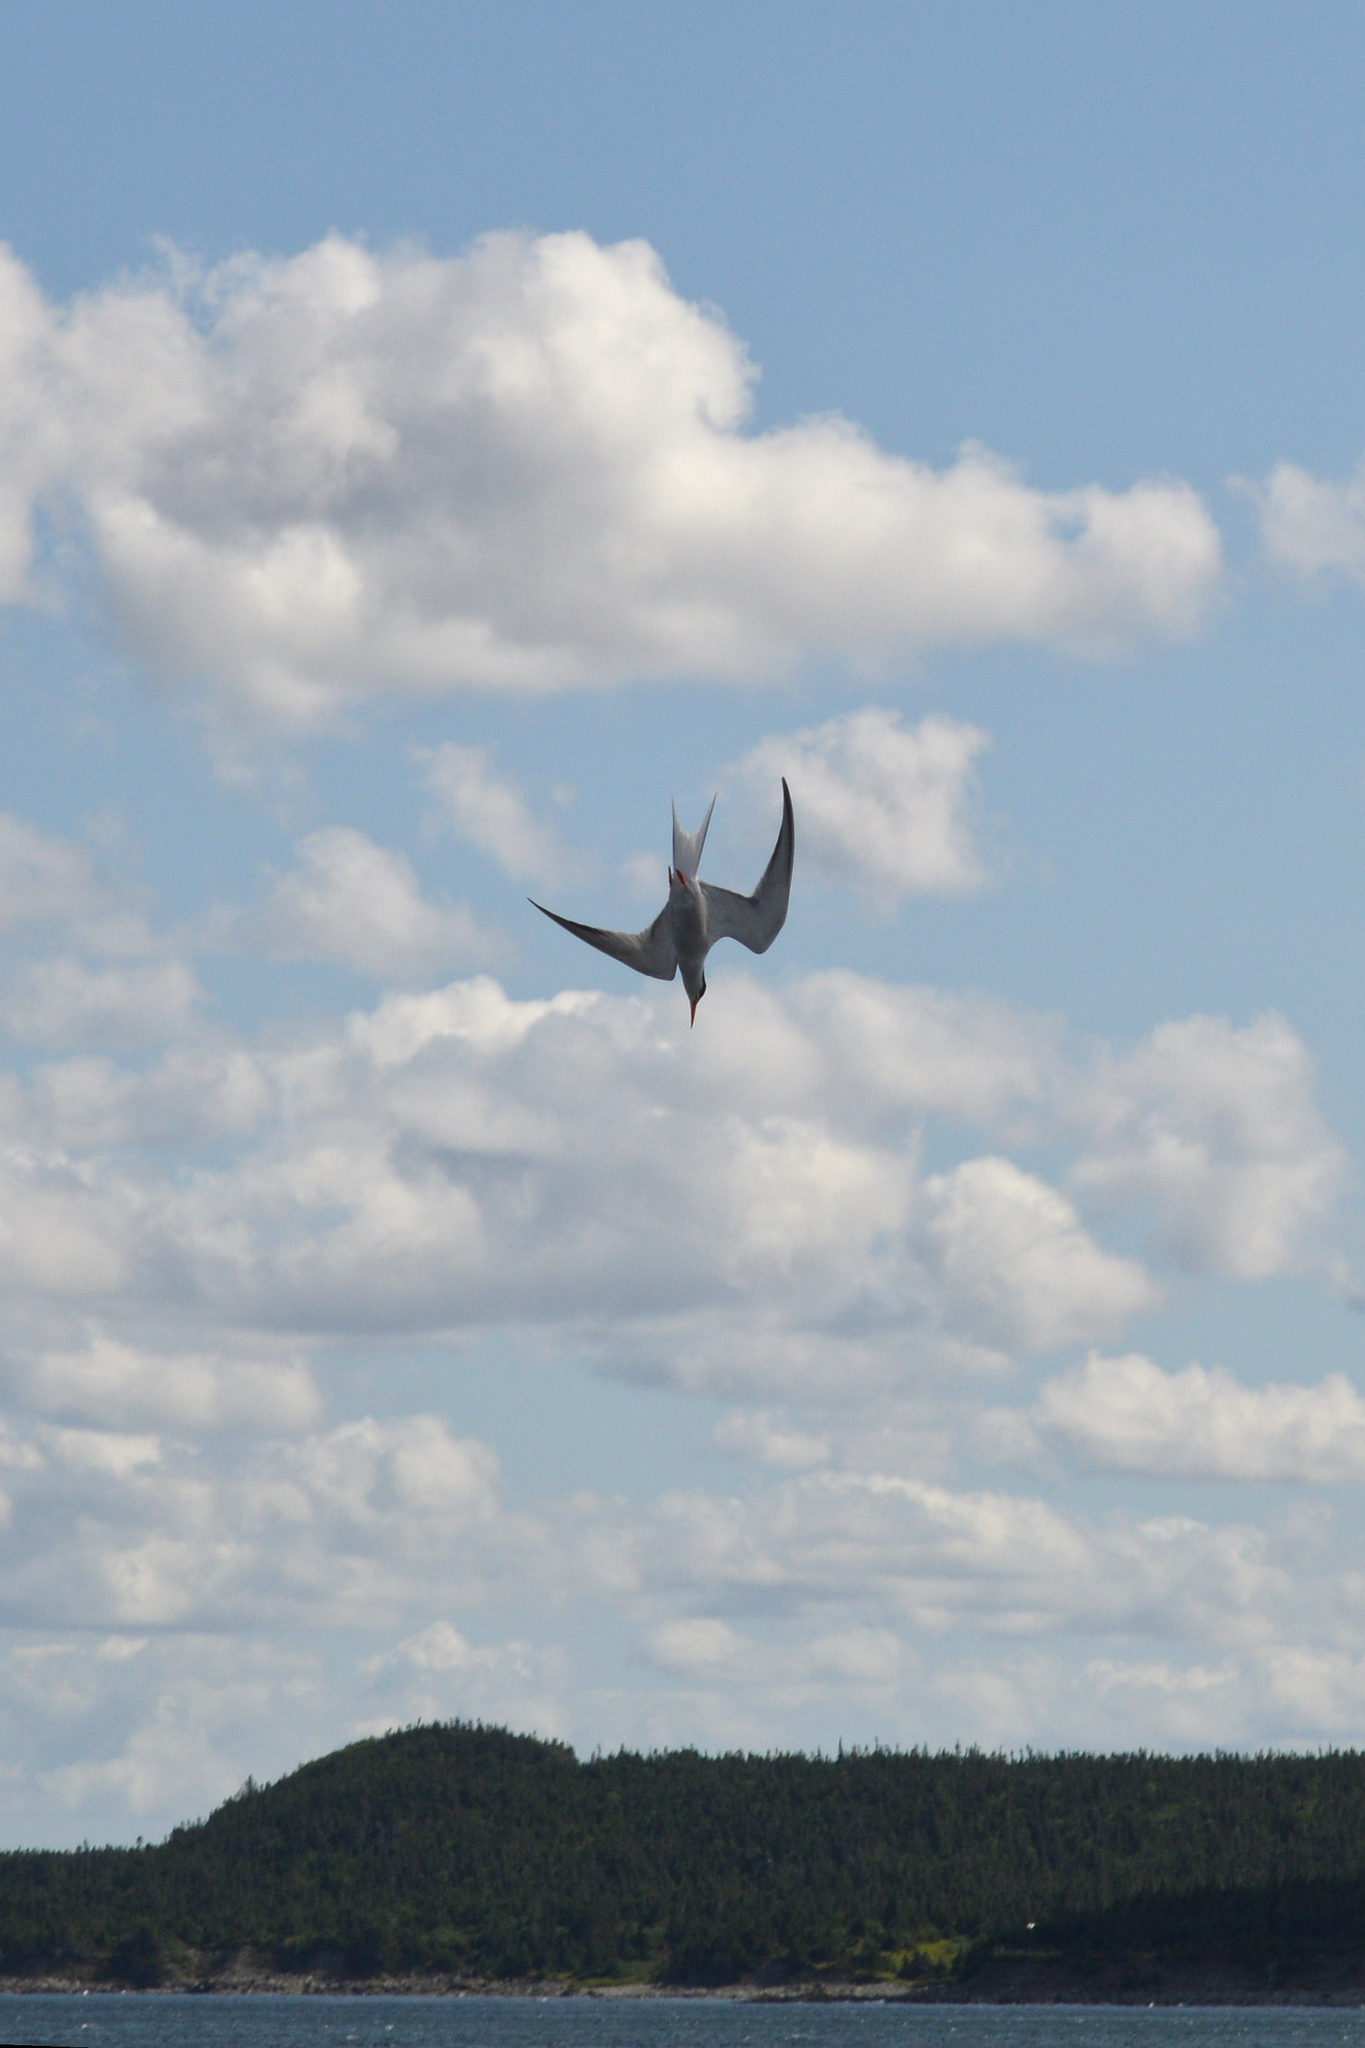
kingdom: Animalia
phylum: Chordata
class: Aves
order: Charadriiformes
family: Laridae
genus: Sterna
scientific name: Sterna hirundo
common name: Common tern
